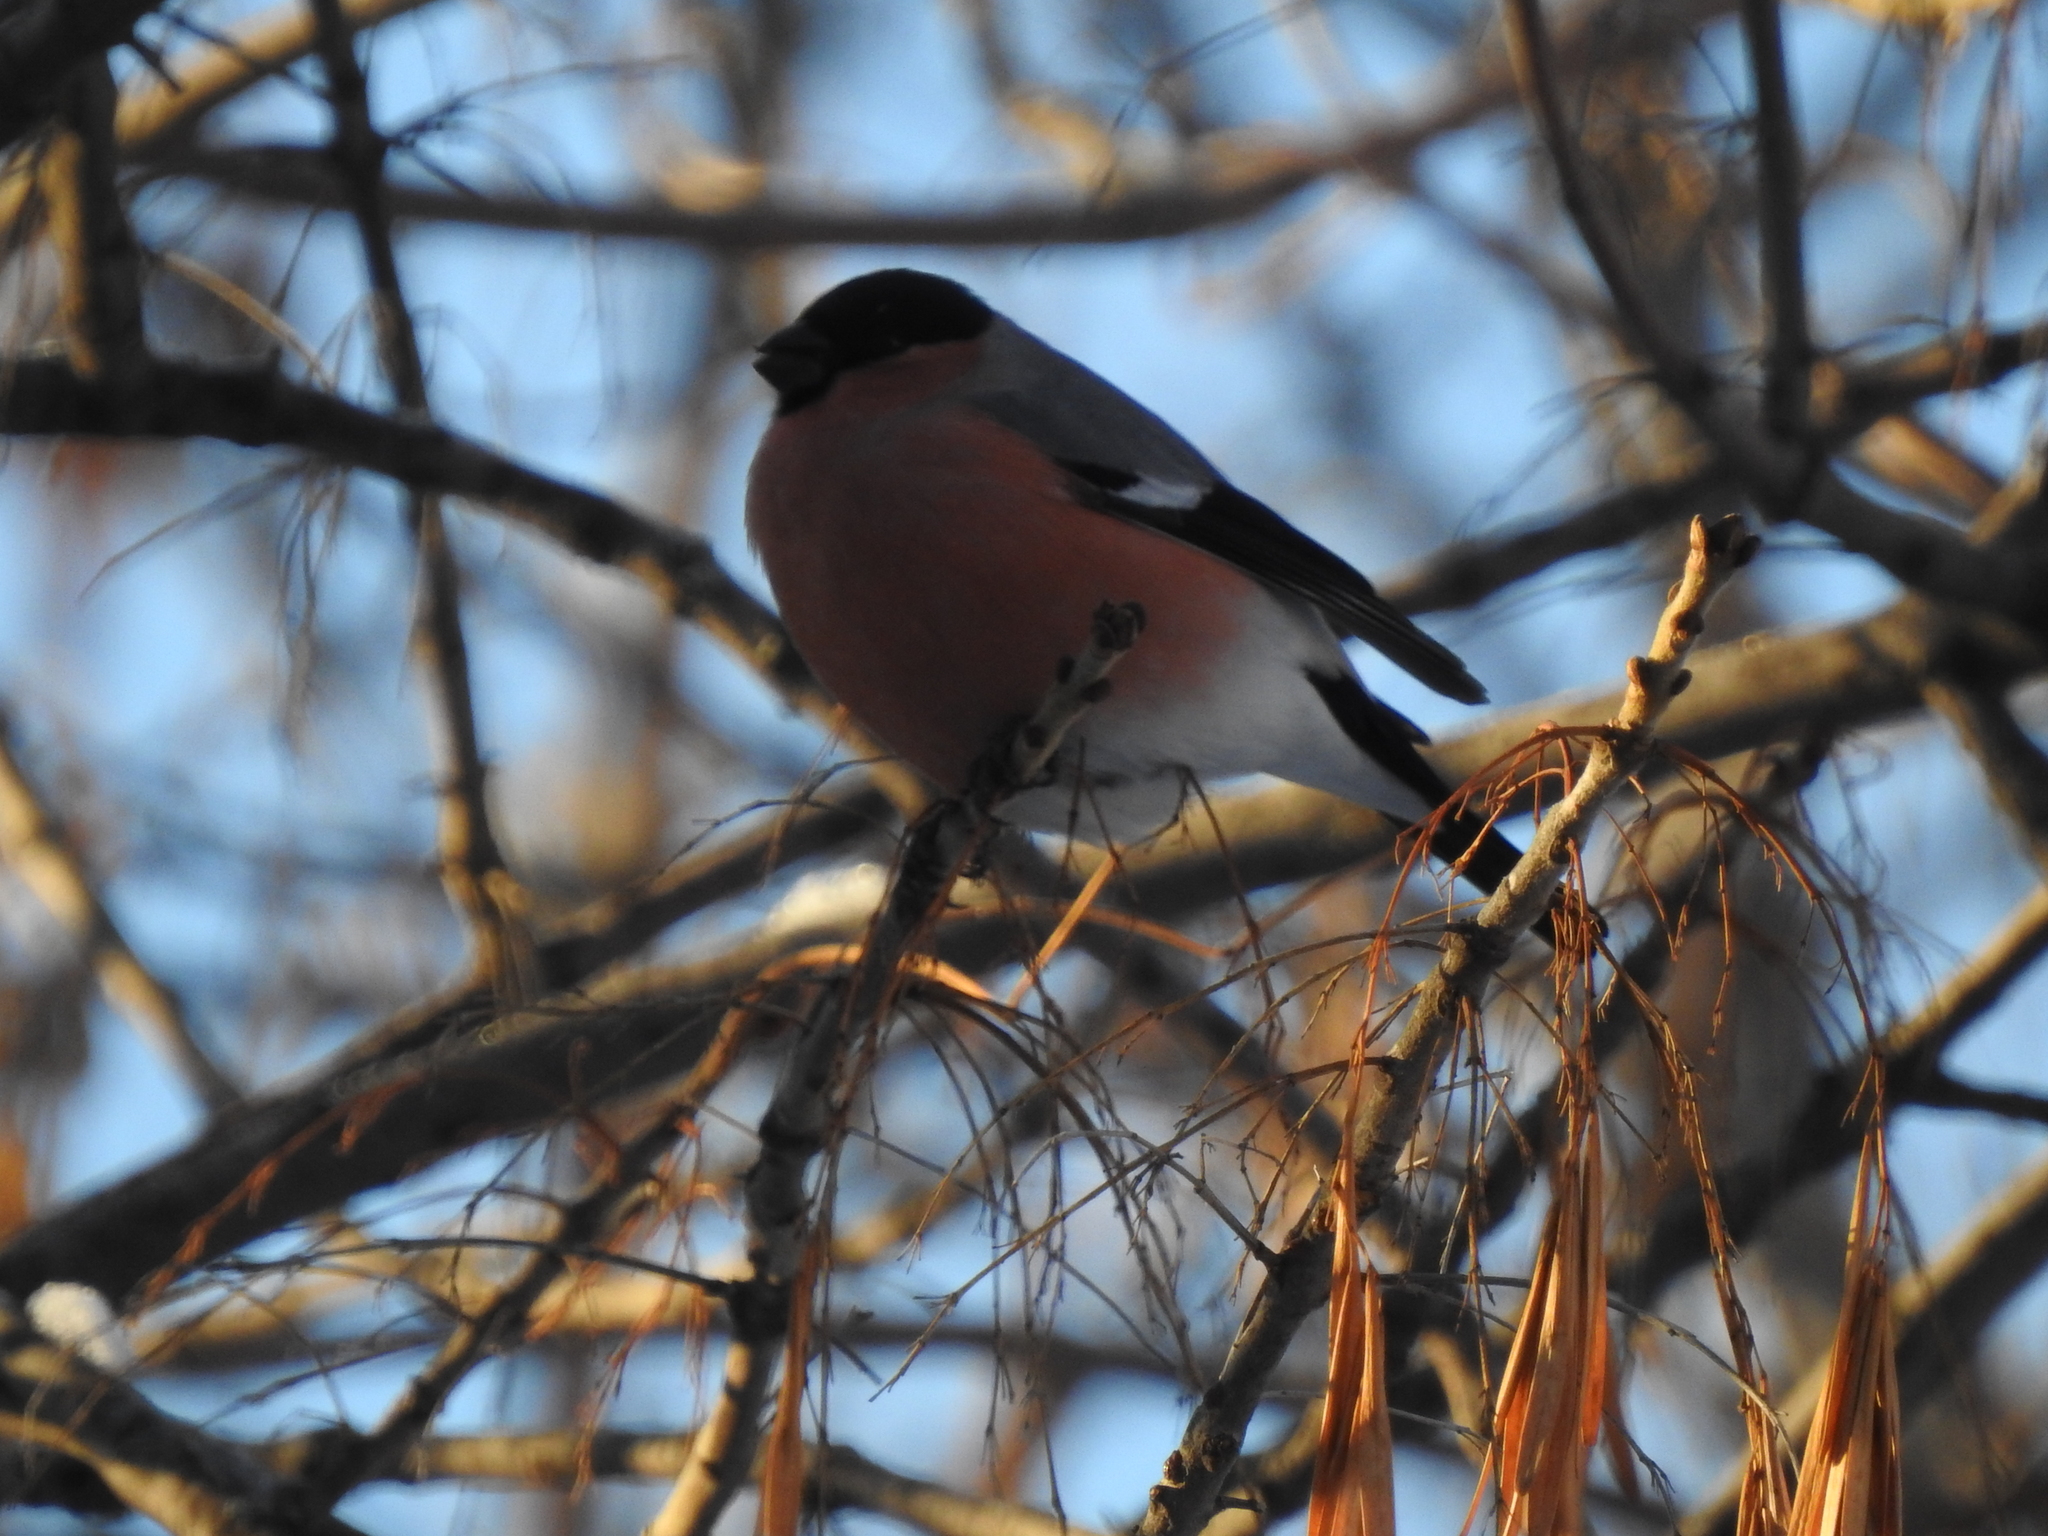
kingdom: Animalia
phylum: Chordata
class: Aves
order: Passeriformes
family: Fringillidae
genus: Pyrrhula
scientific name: Pyrrhula pyrrhula
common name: Eurasian bullfinch
